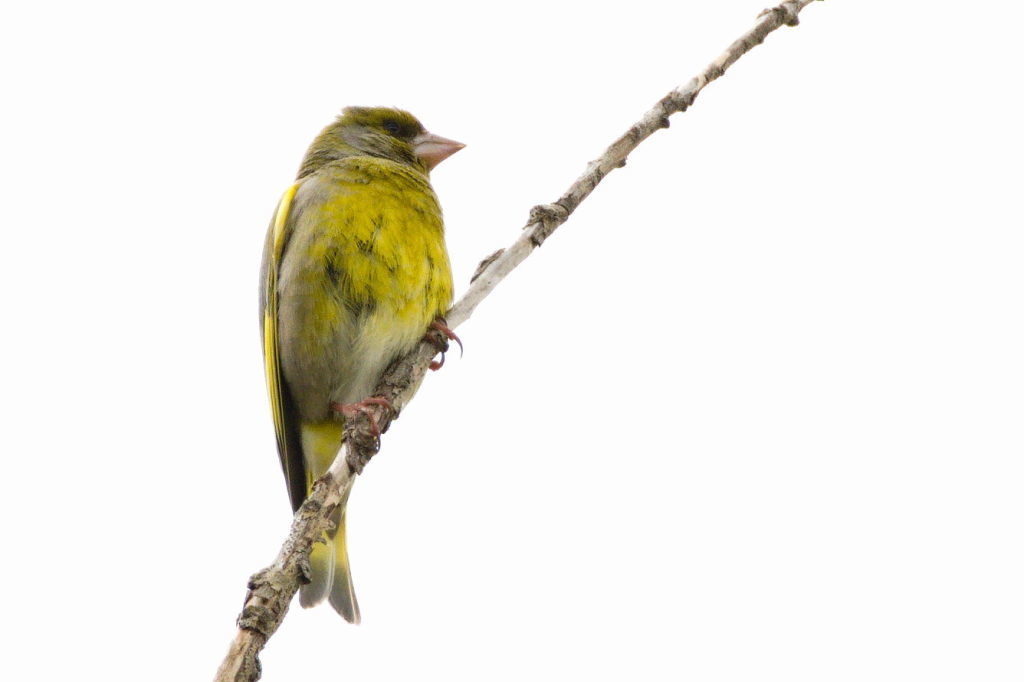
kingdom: Plantae
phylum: Tracheophyta
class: Liliopsida
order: Poales
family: Poaceae
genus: Chloris
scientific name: Chloris chloris
